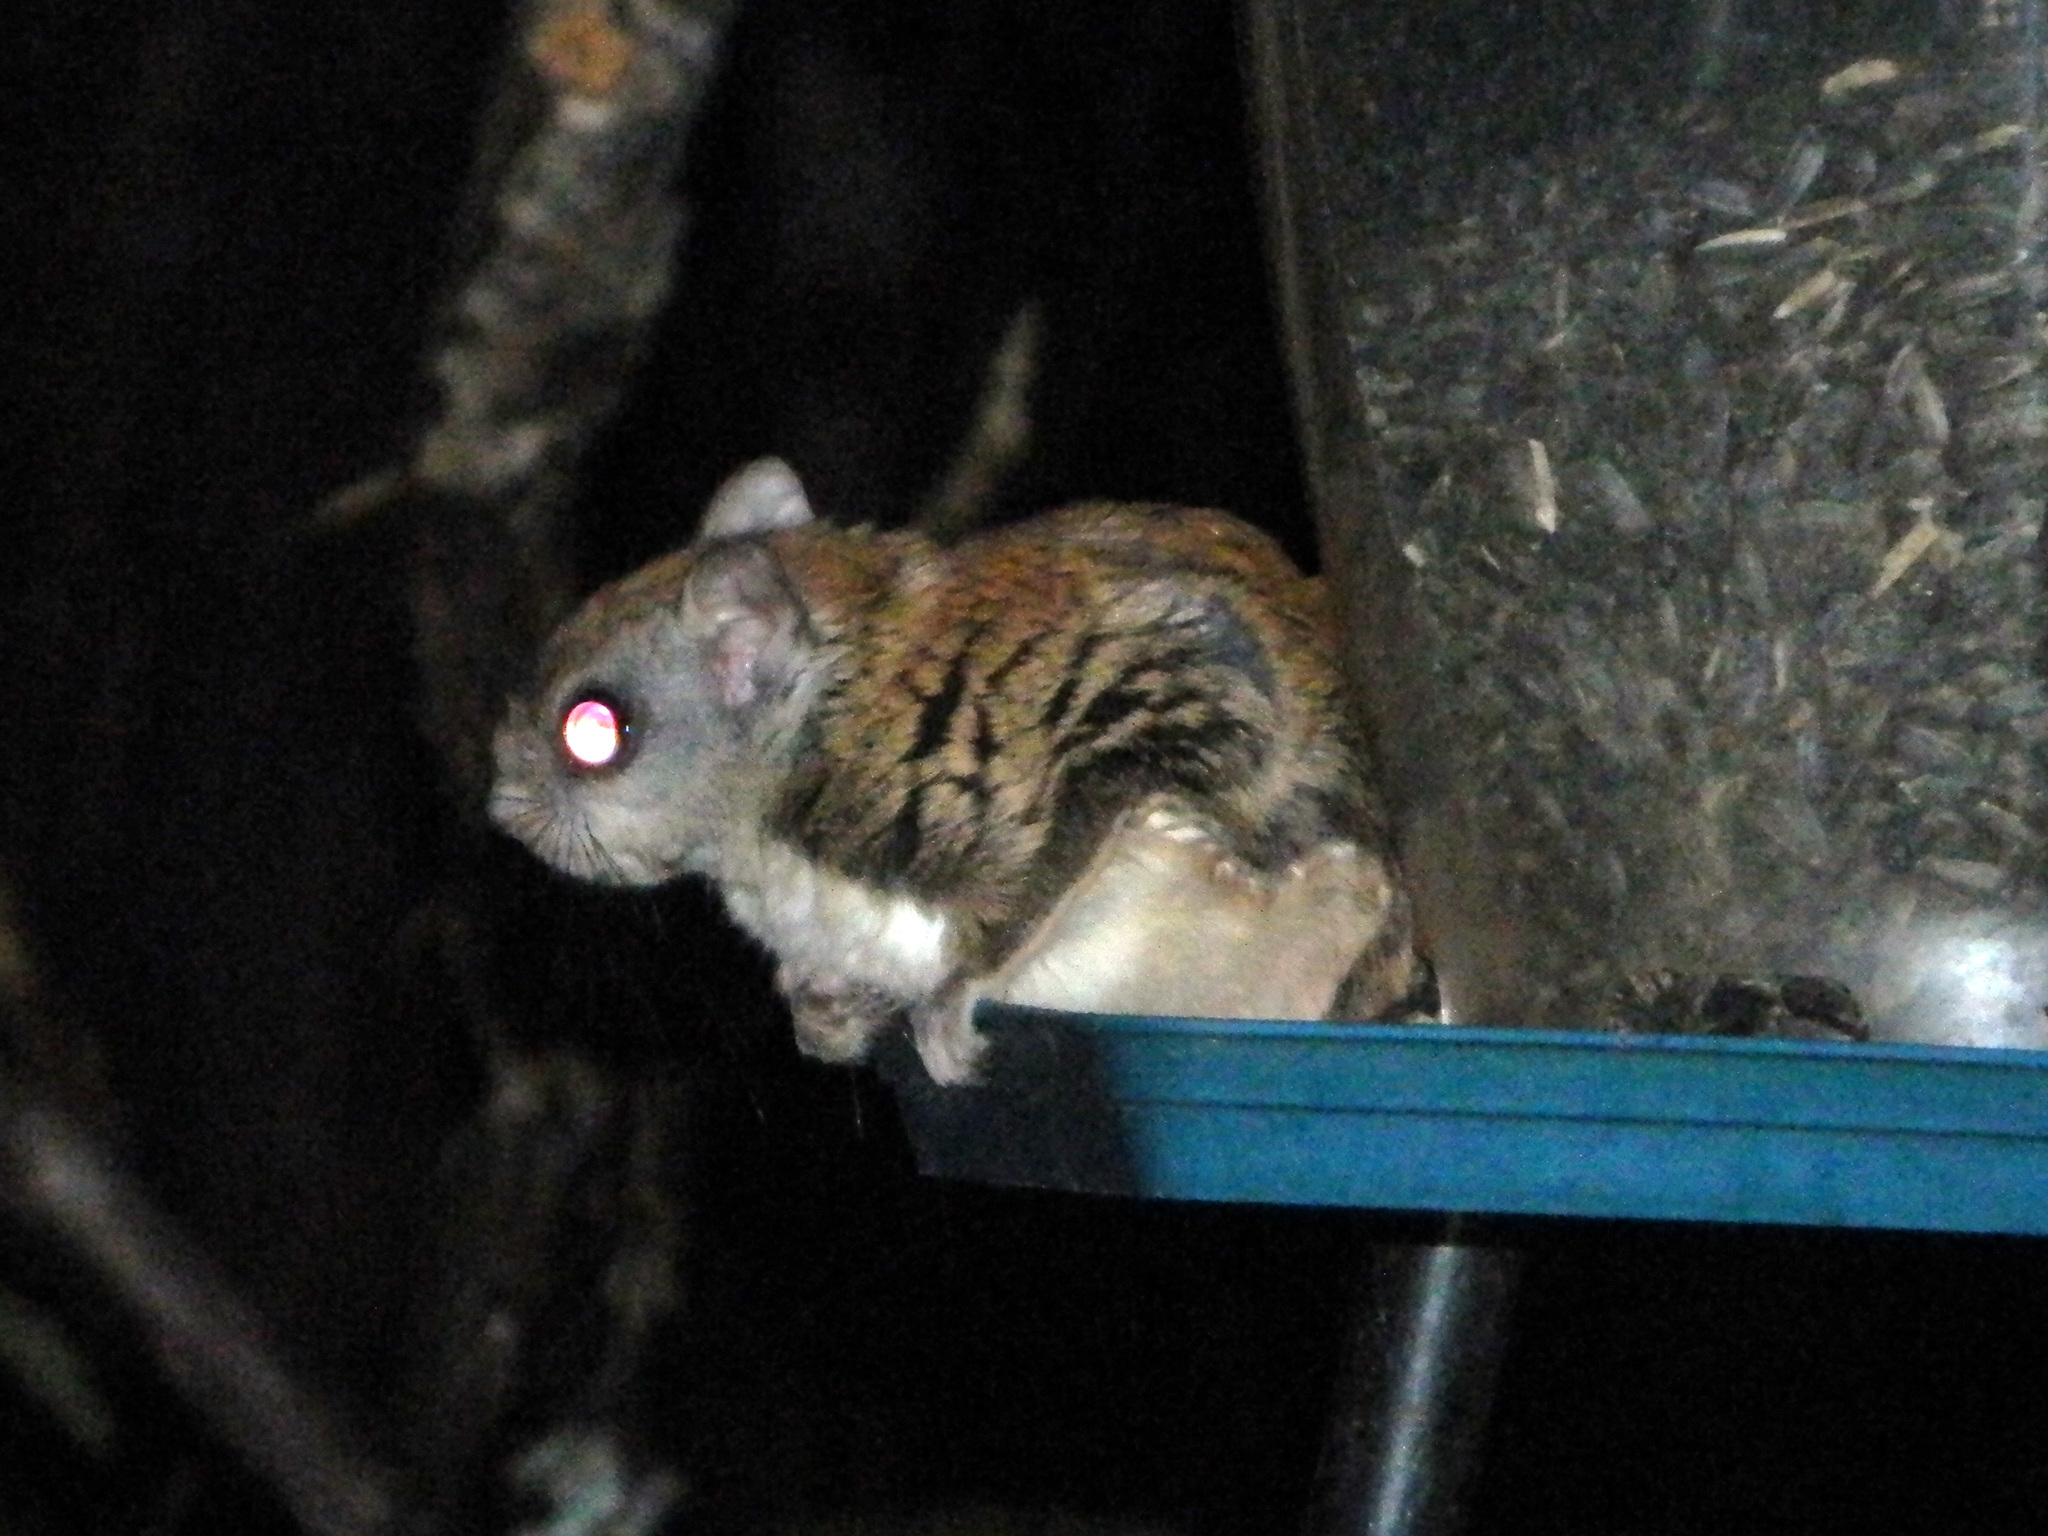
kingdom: Animalia
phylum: Chordata
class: Mammalia
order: Rodentia
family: Sciuridae
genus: Glaucomys
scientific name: Glaucomys sabrinus
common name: Northern flying squirrel
